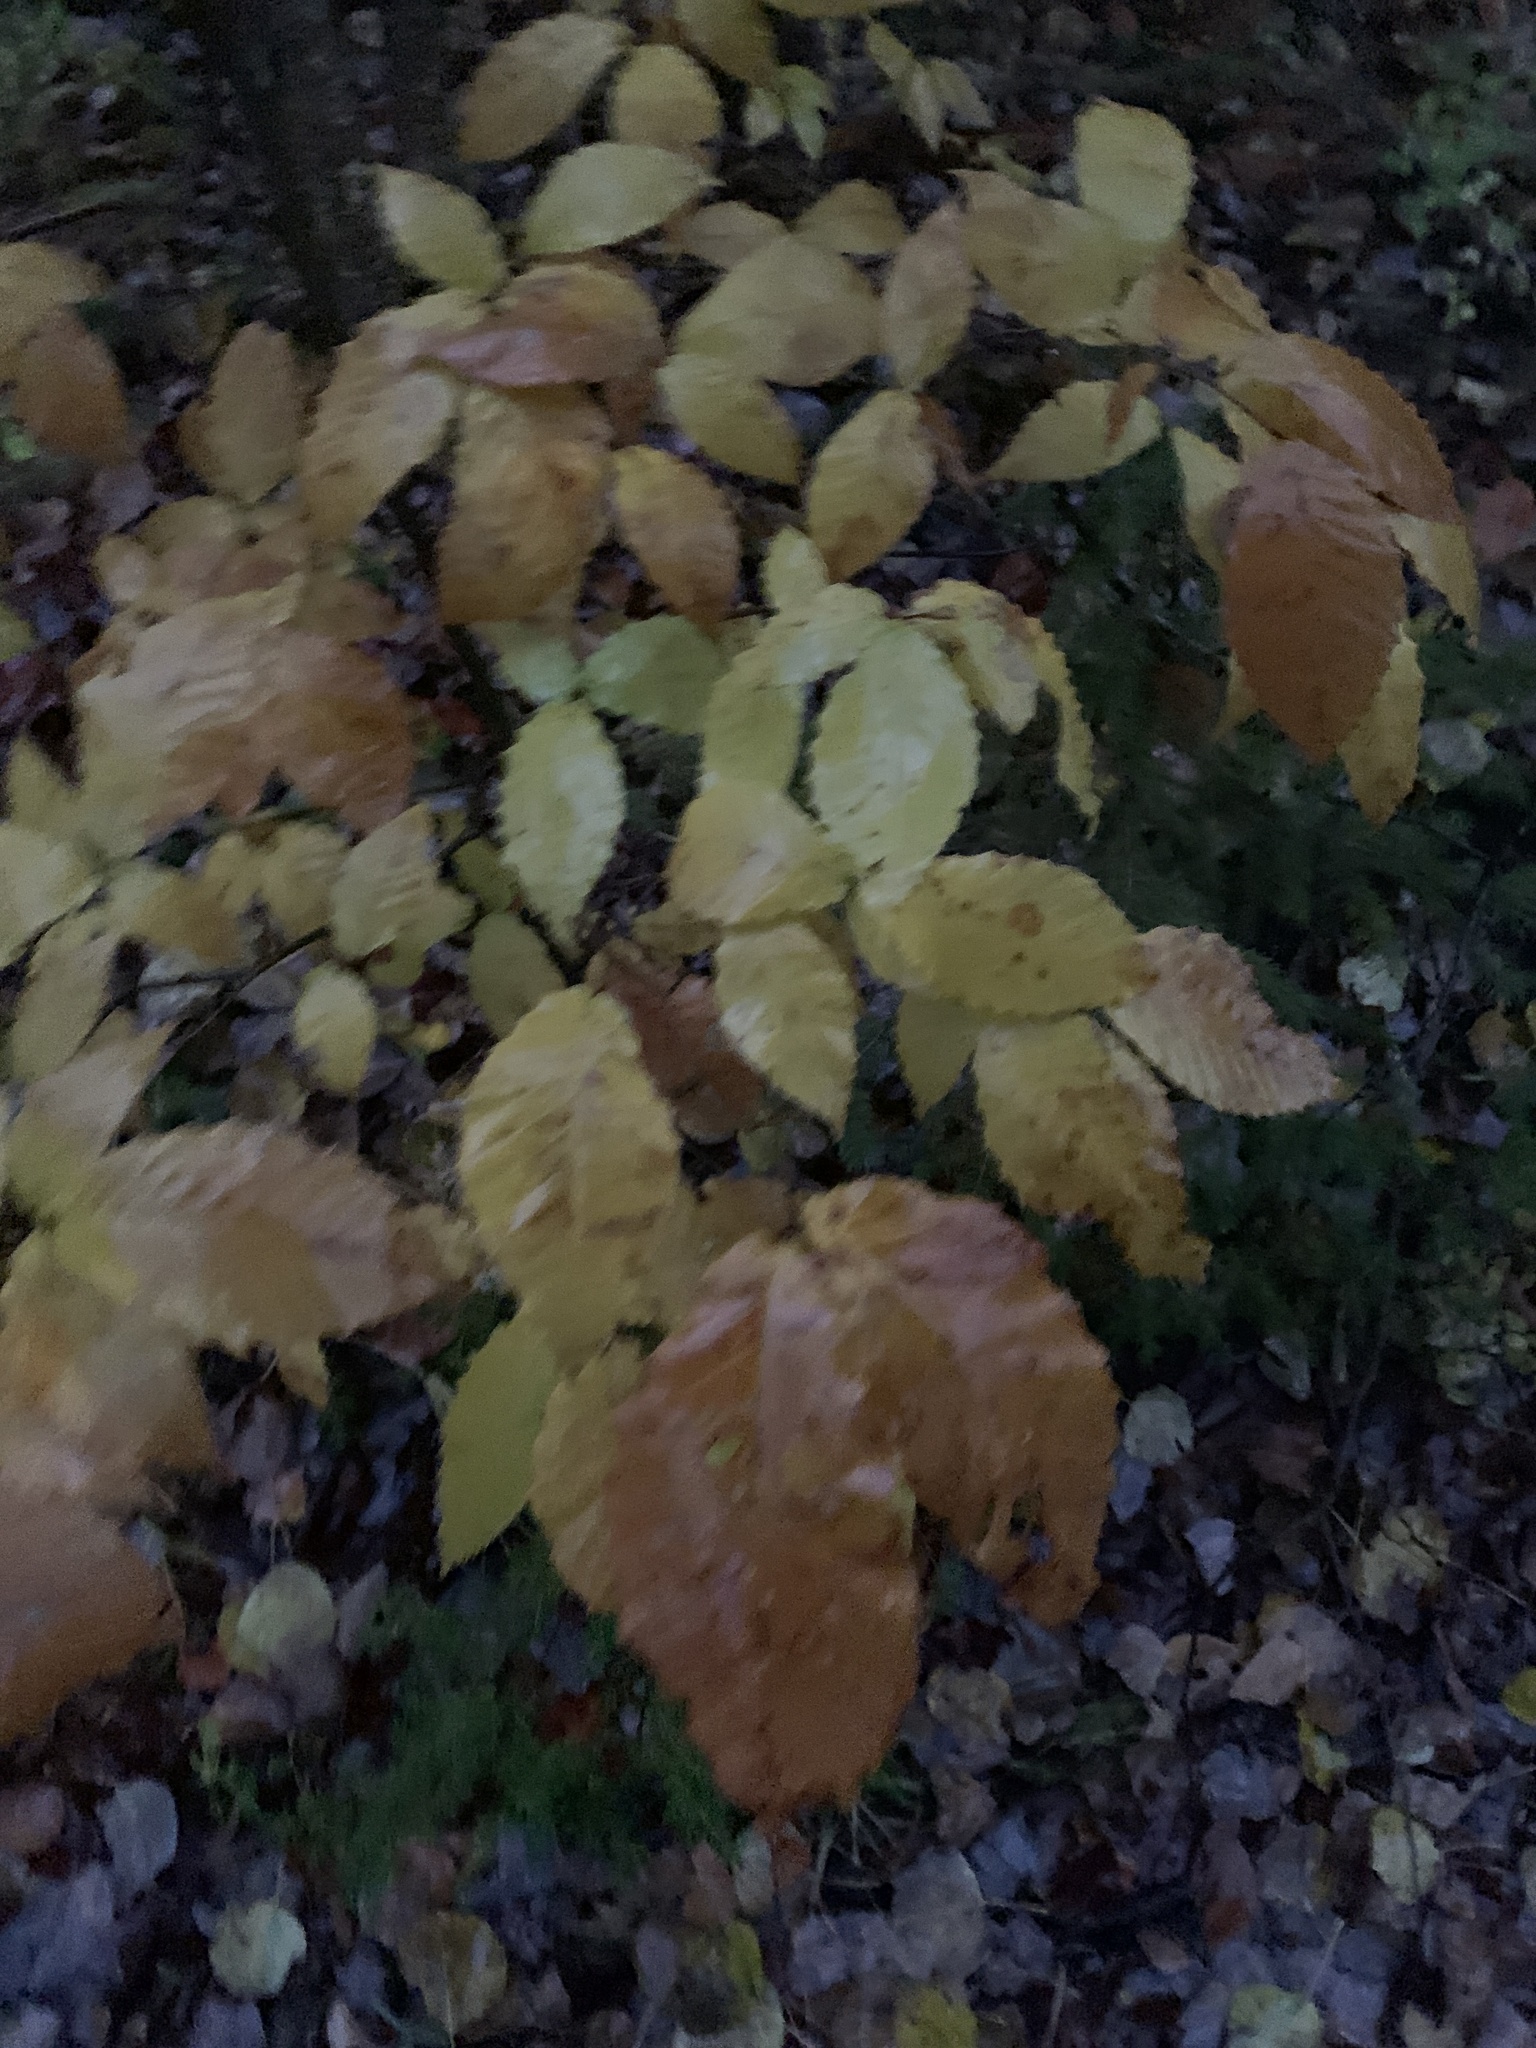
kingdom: Plantae
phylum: Tracheophyta
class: Magnoliopsida
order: Fagales
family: Fagaceae
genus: Fagus
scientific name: Fagus grandifolia
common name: American beech
